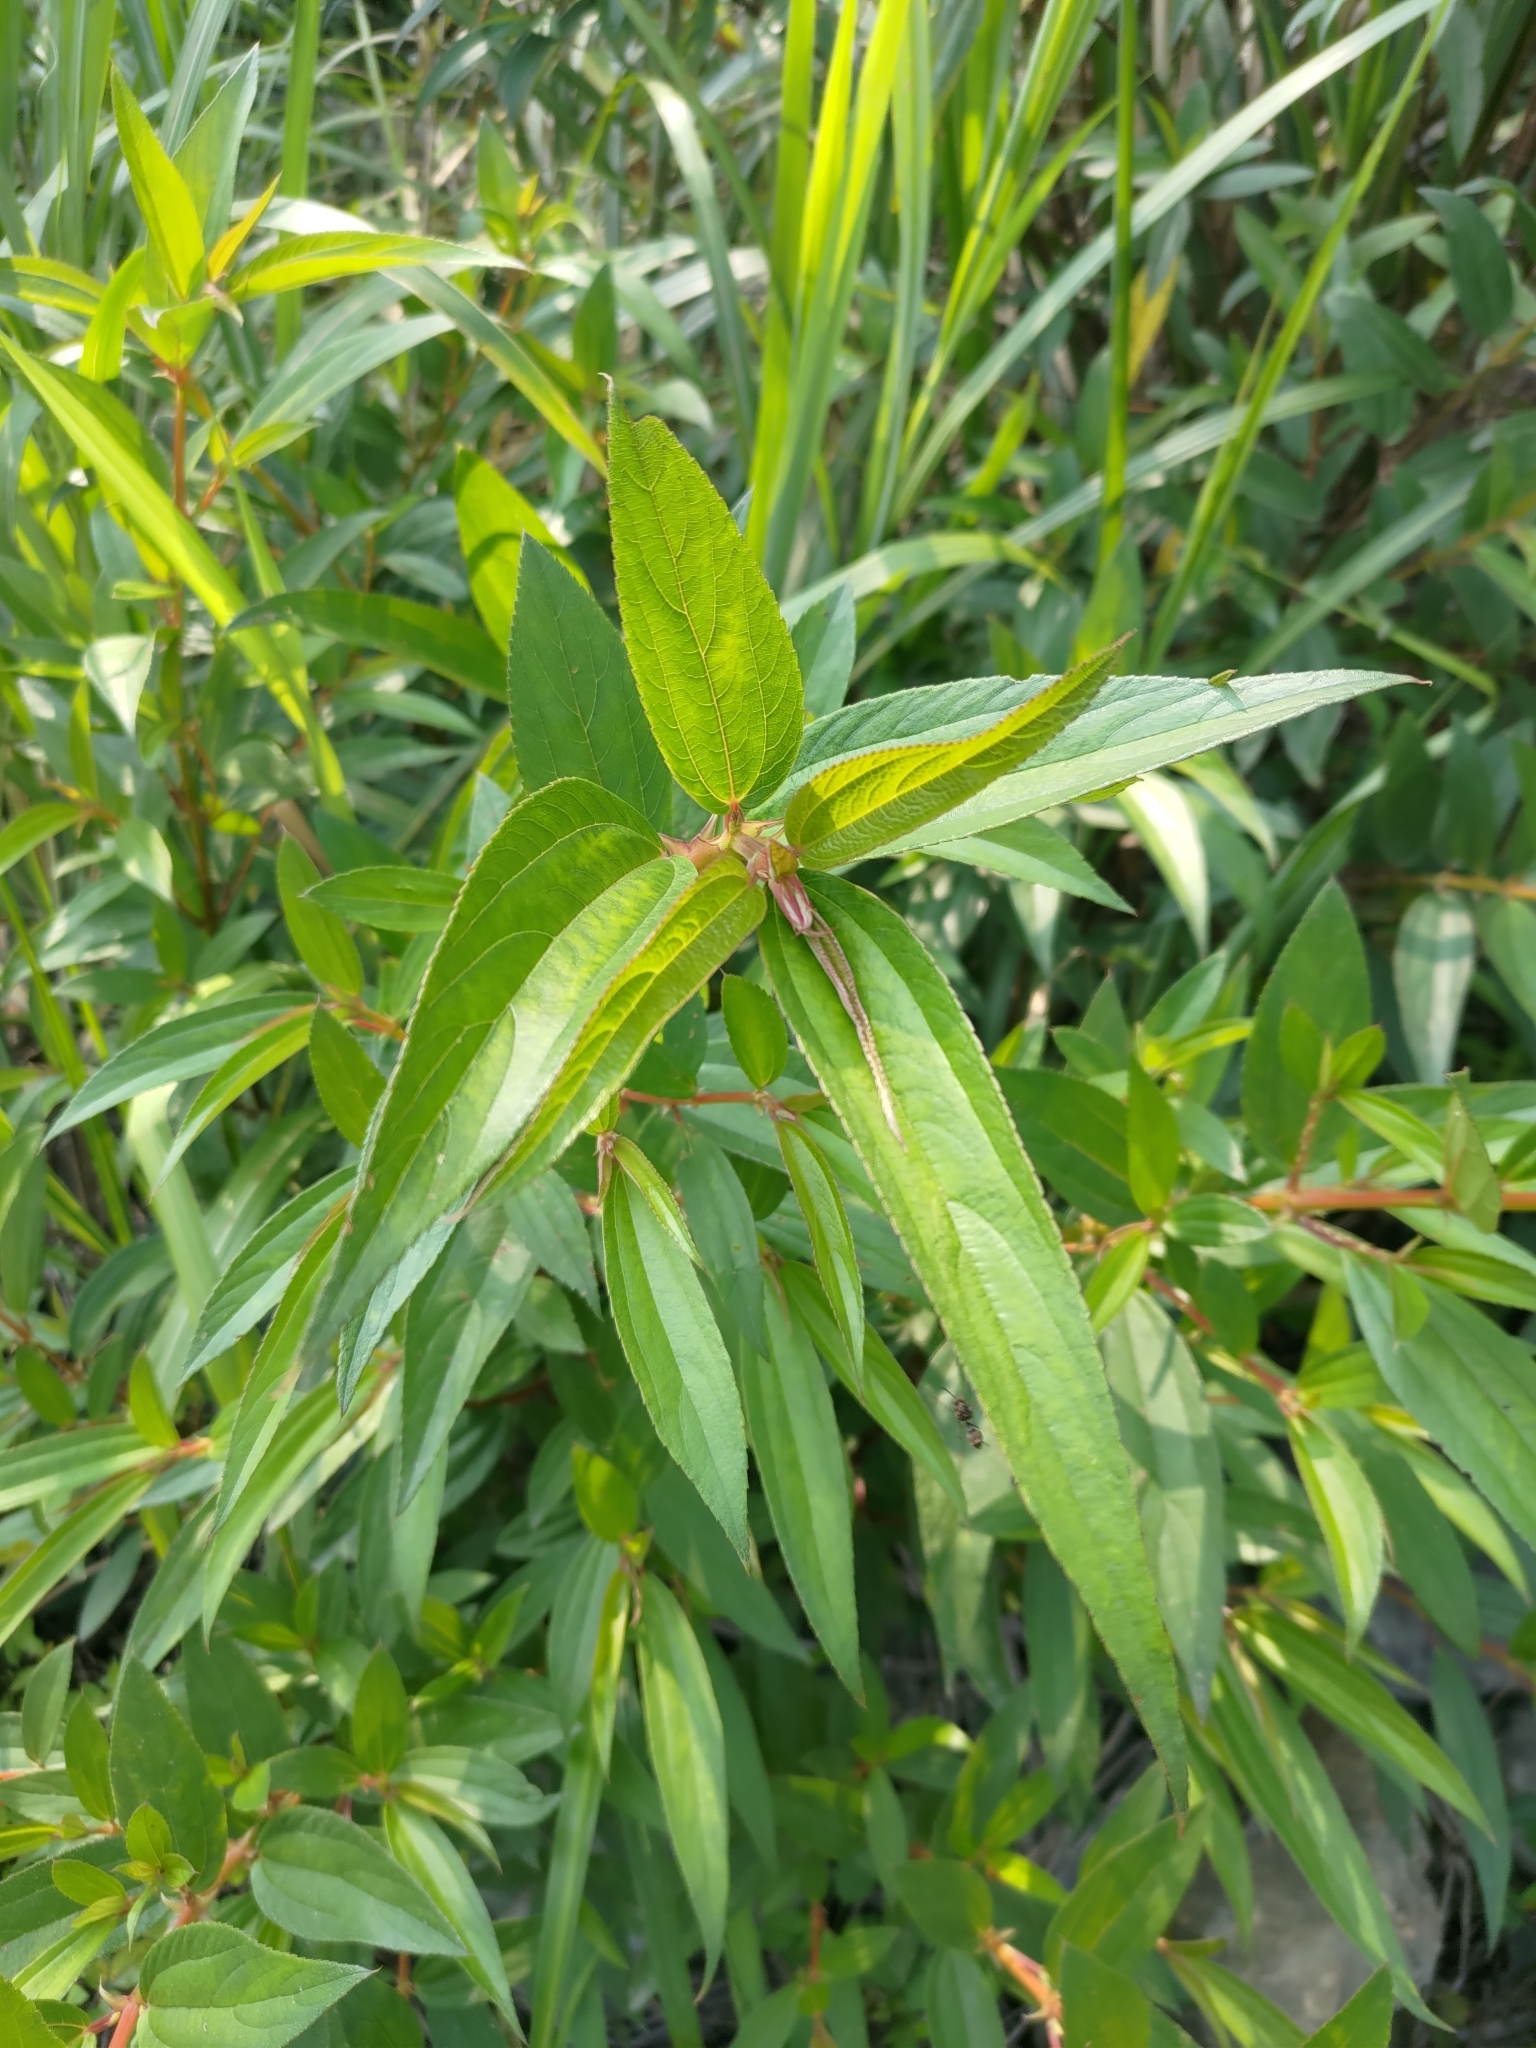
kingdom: Plantae
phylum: Tracheophyta
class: Magnoliopsida
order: Rosales
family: Urticaceae
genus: Boehmeria
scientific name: Boehmeria densiflora
